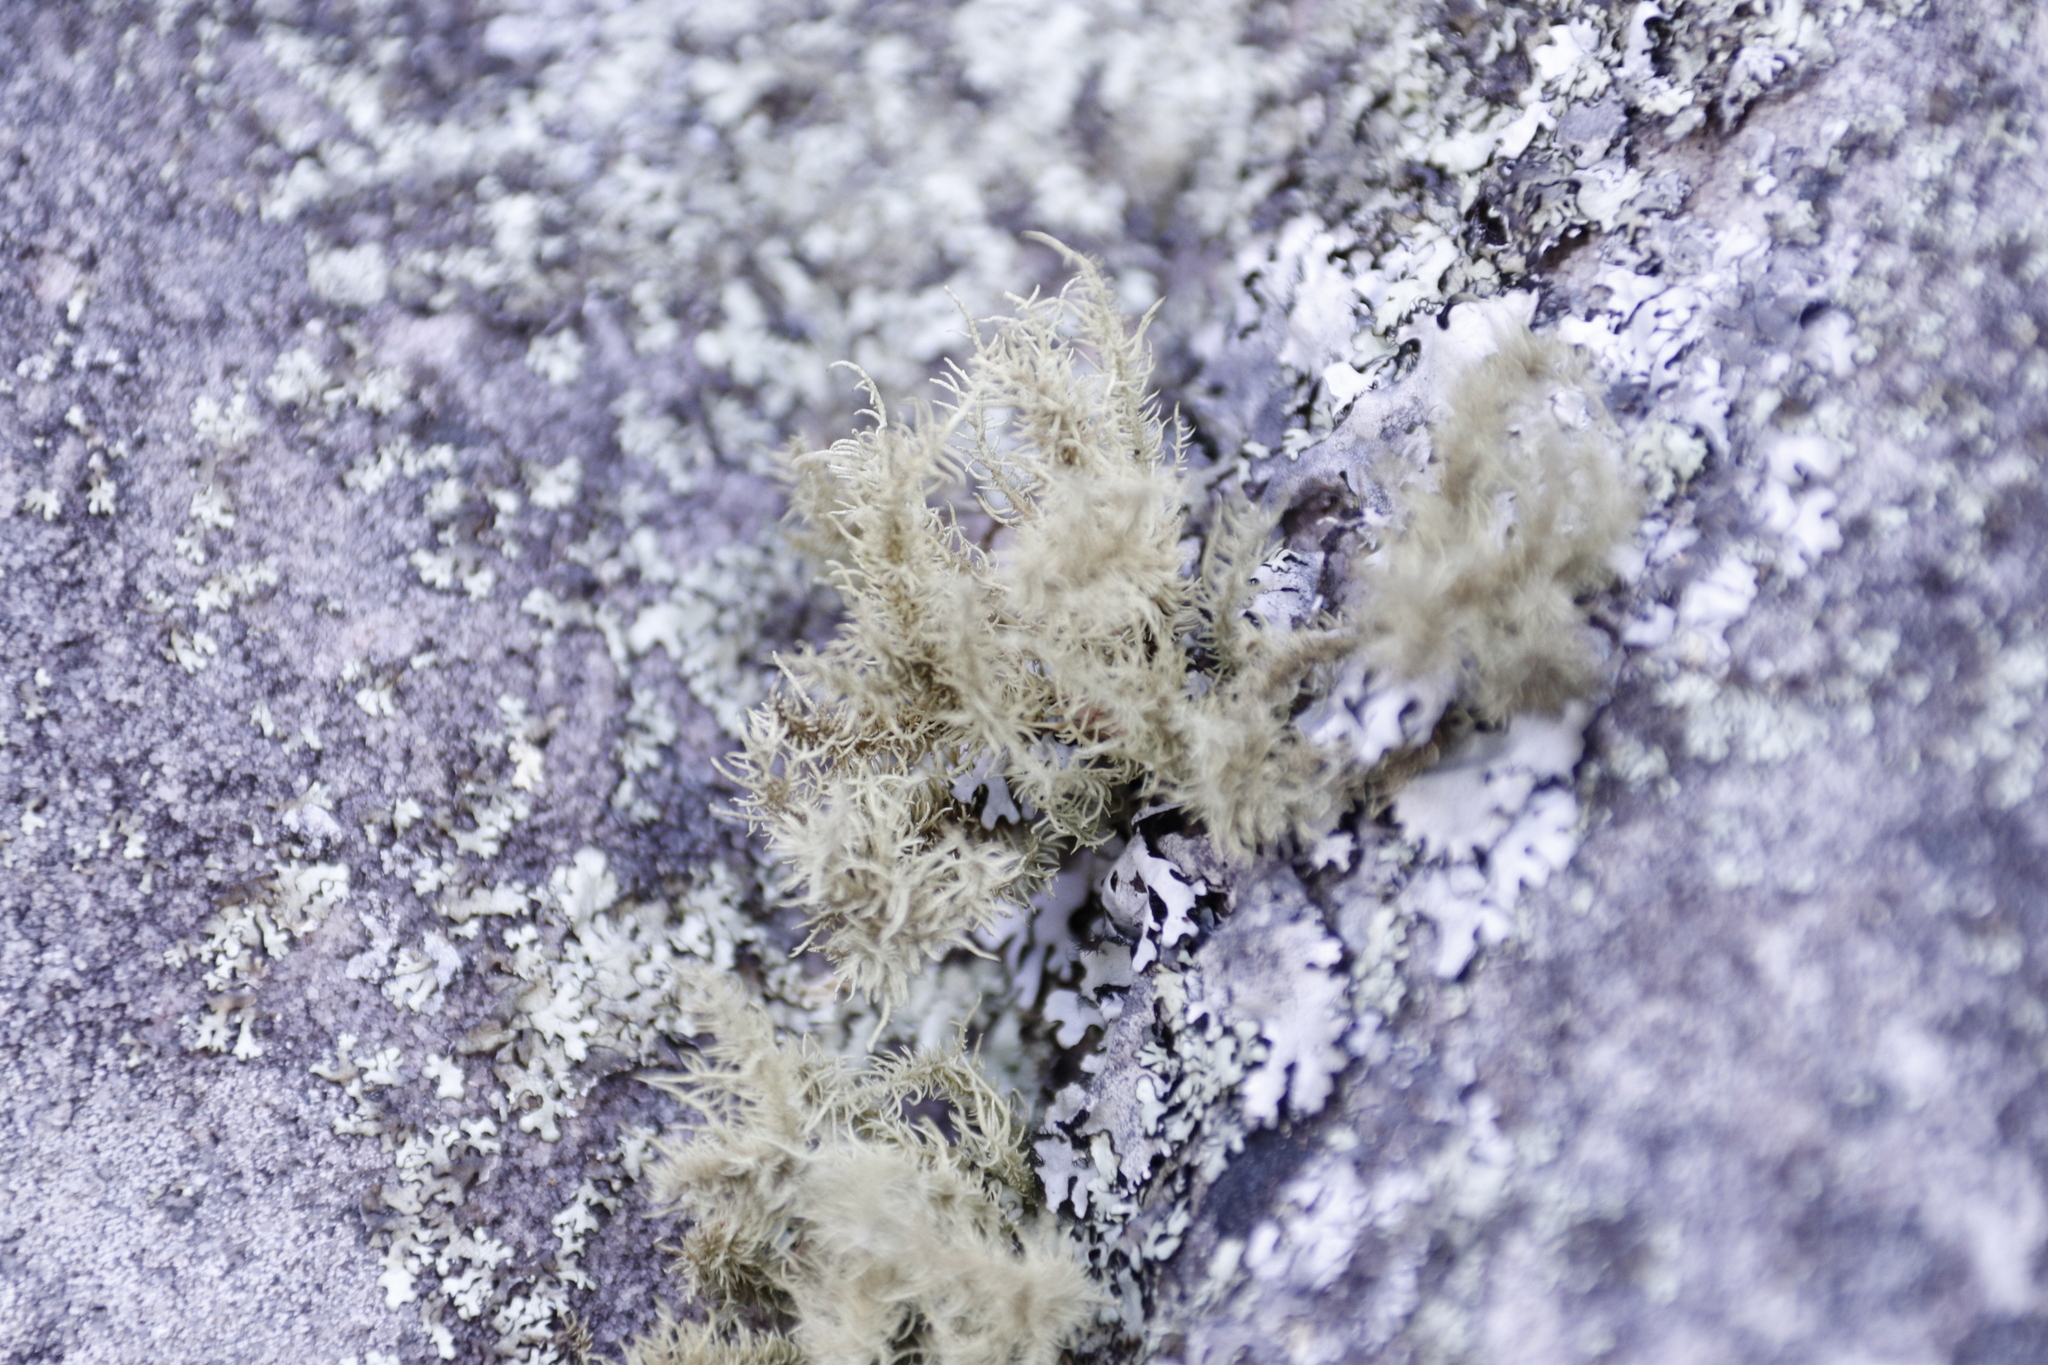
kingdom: Fungi
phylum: Ascomycota
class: Lecanoromycetes
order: Lecanorales
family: Parmeliaceae
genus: Usnea
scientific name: Usnea pulvinata
